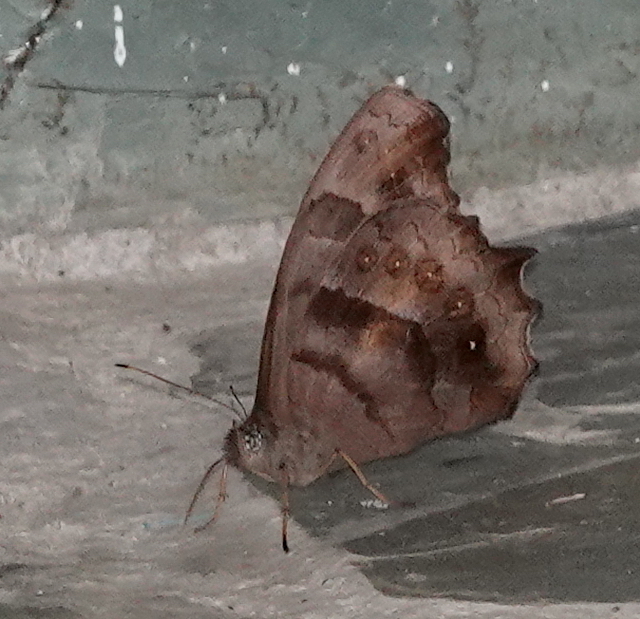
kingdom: Animalia
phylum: Arthropoda
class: Insecta
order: Lepidoptera
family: Nymphalidae
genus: Pseudodebis
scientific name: Pseudodebis celia
